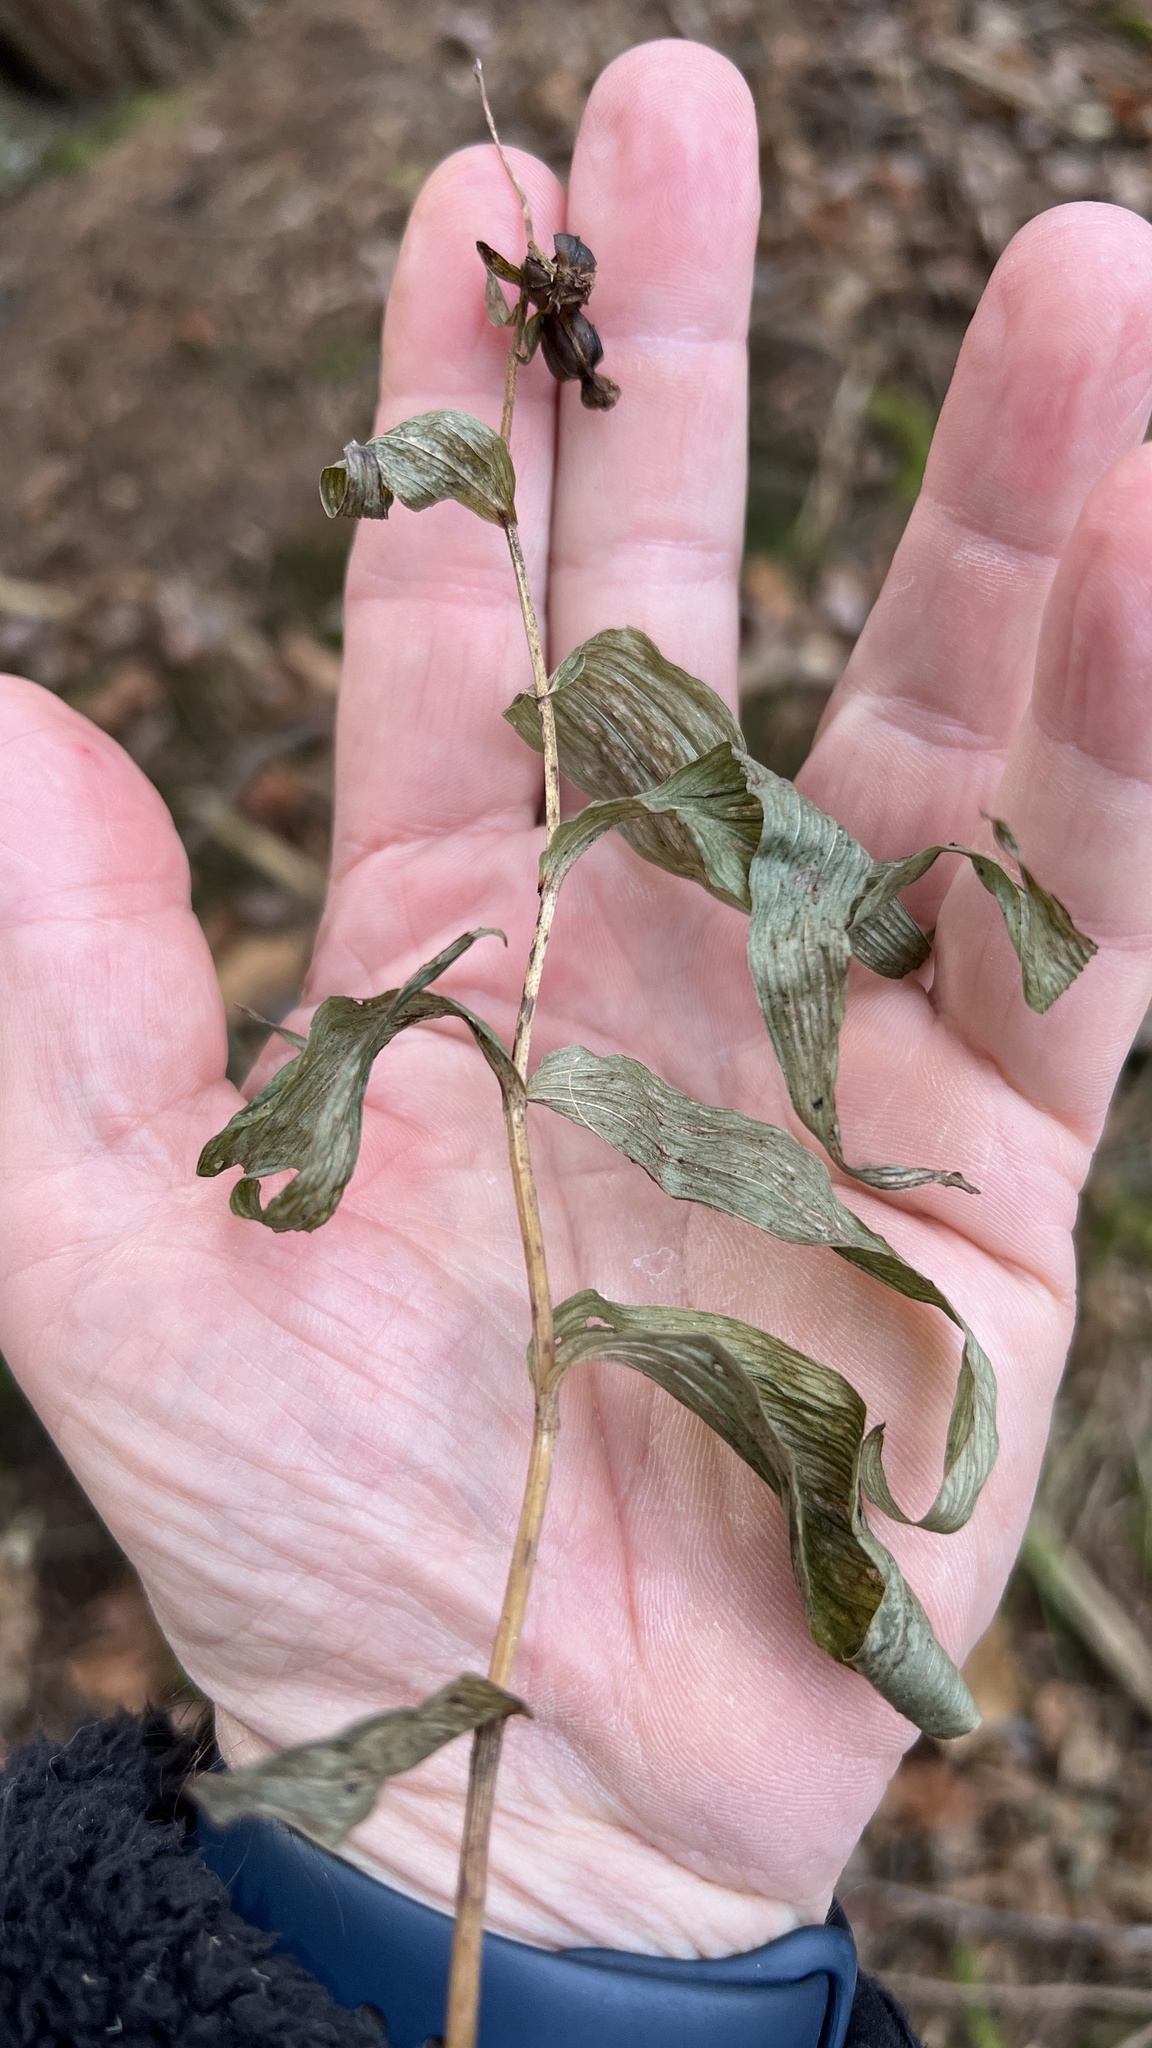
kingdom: Plantae
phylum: Tracheophyta
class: Liliopsida
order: Asparagales
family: Orchidaceae
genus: Epipactis
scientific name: Epipactis helleborine
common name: Broad-leaved helleborine
